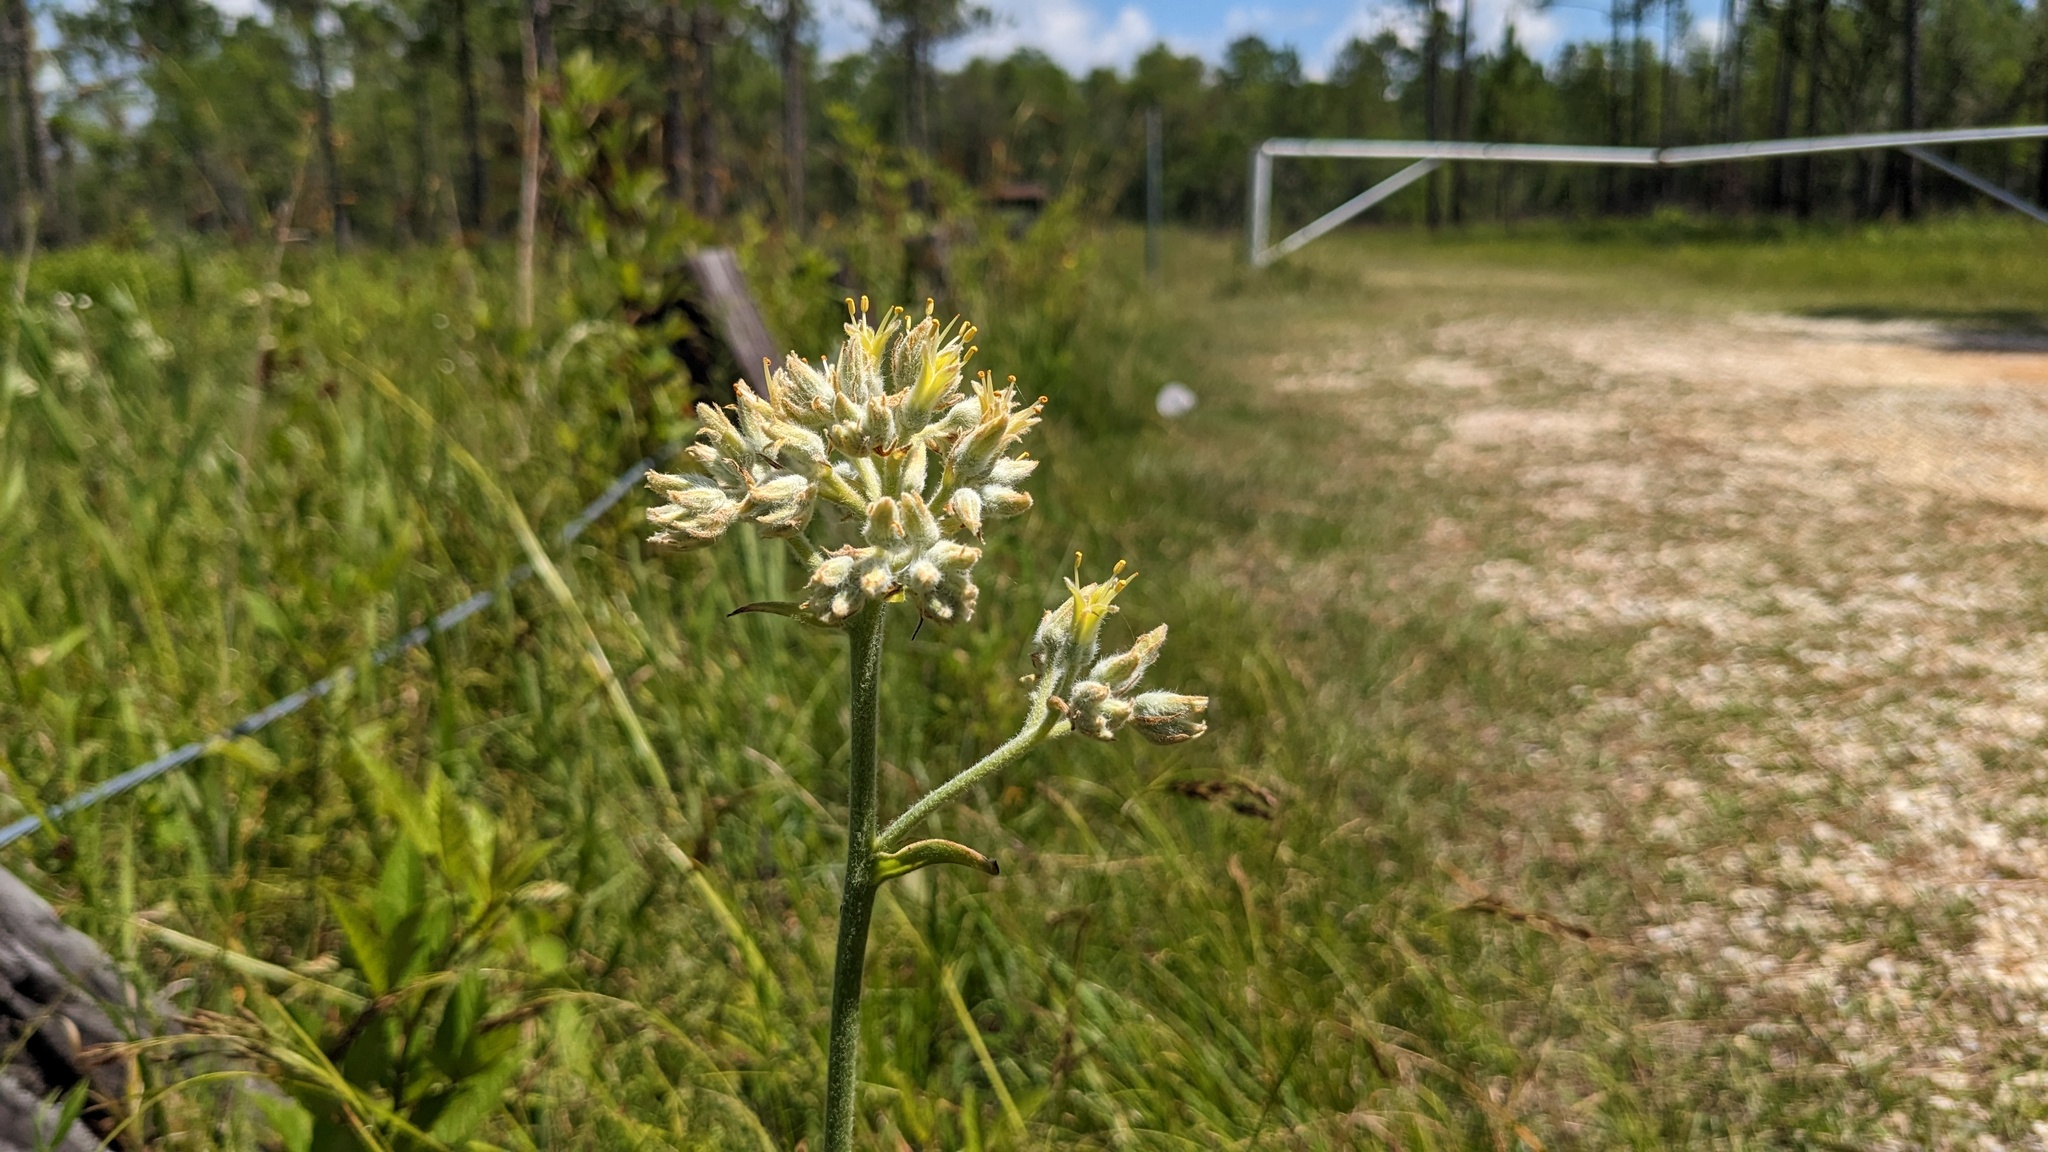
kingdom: Plantae
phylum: Tracheophyta
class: Liliopsida
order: Commelinales
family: Haemodoraceae
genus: Lachnanthes
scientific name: Lachnanthes caroliana
